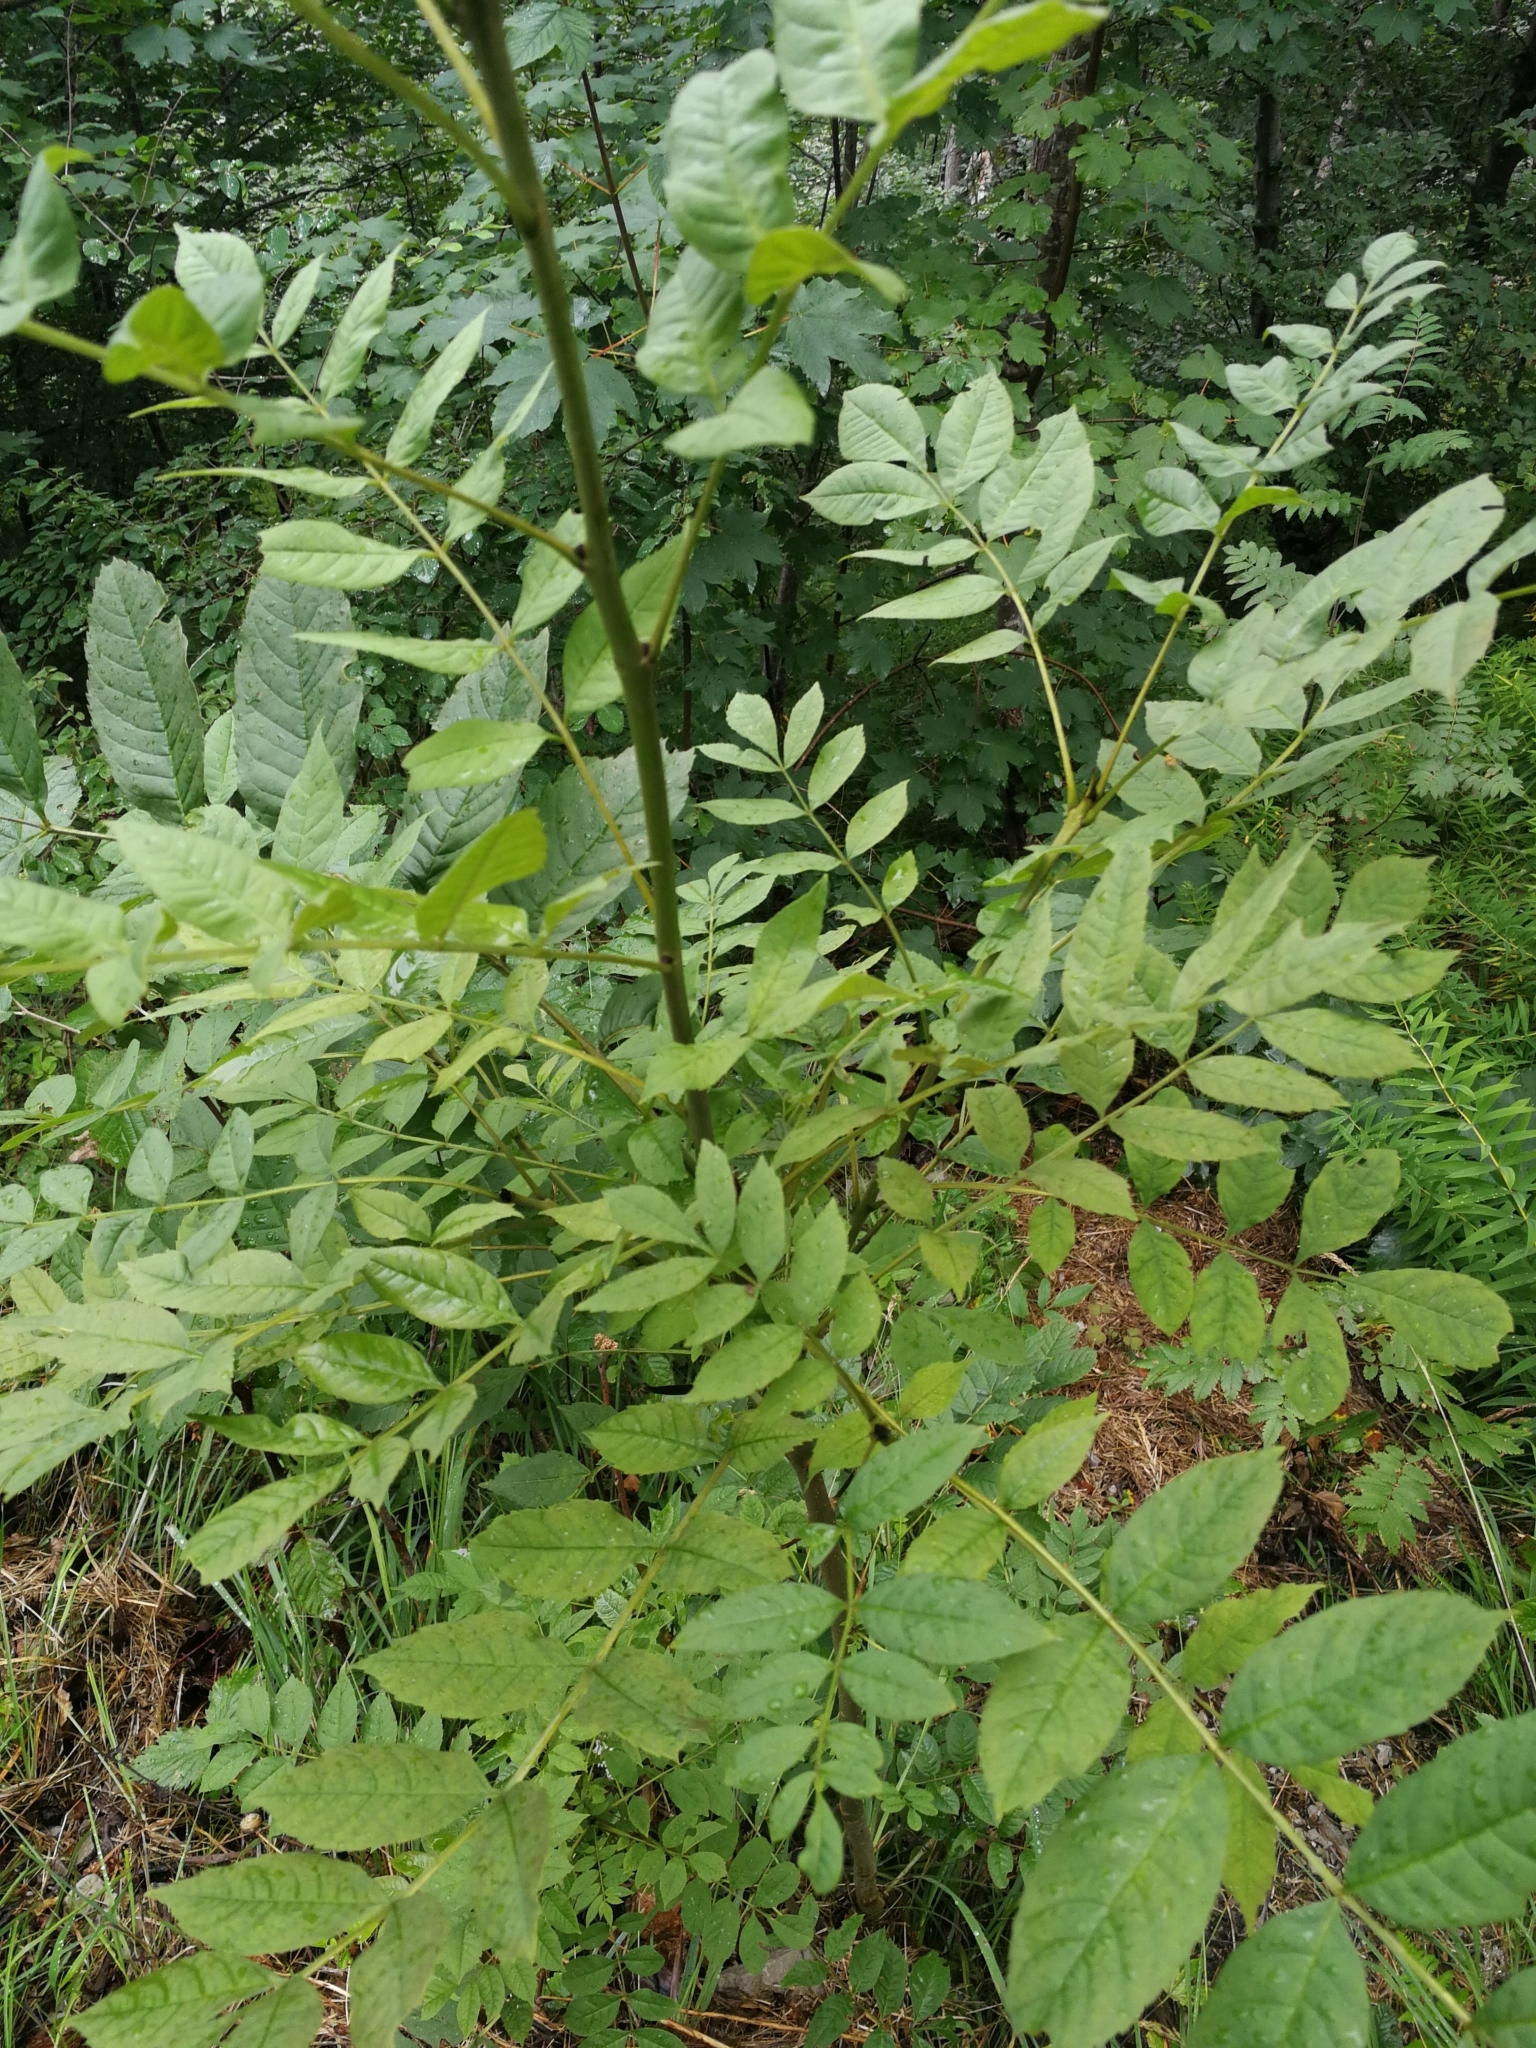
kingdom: Plantae
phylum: Tracheophyta
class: Magnoliopsida
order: Lamiales
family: Oleaceae
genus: Fraxinus
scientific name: Fraxinus excelsior
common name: European ash
